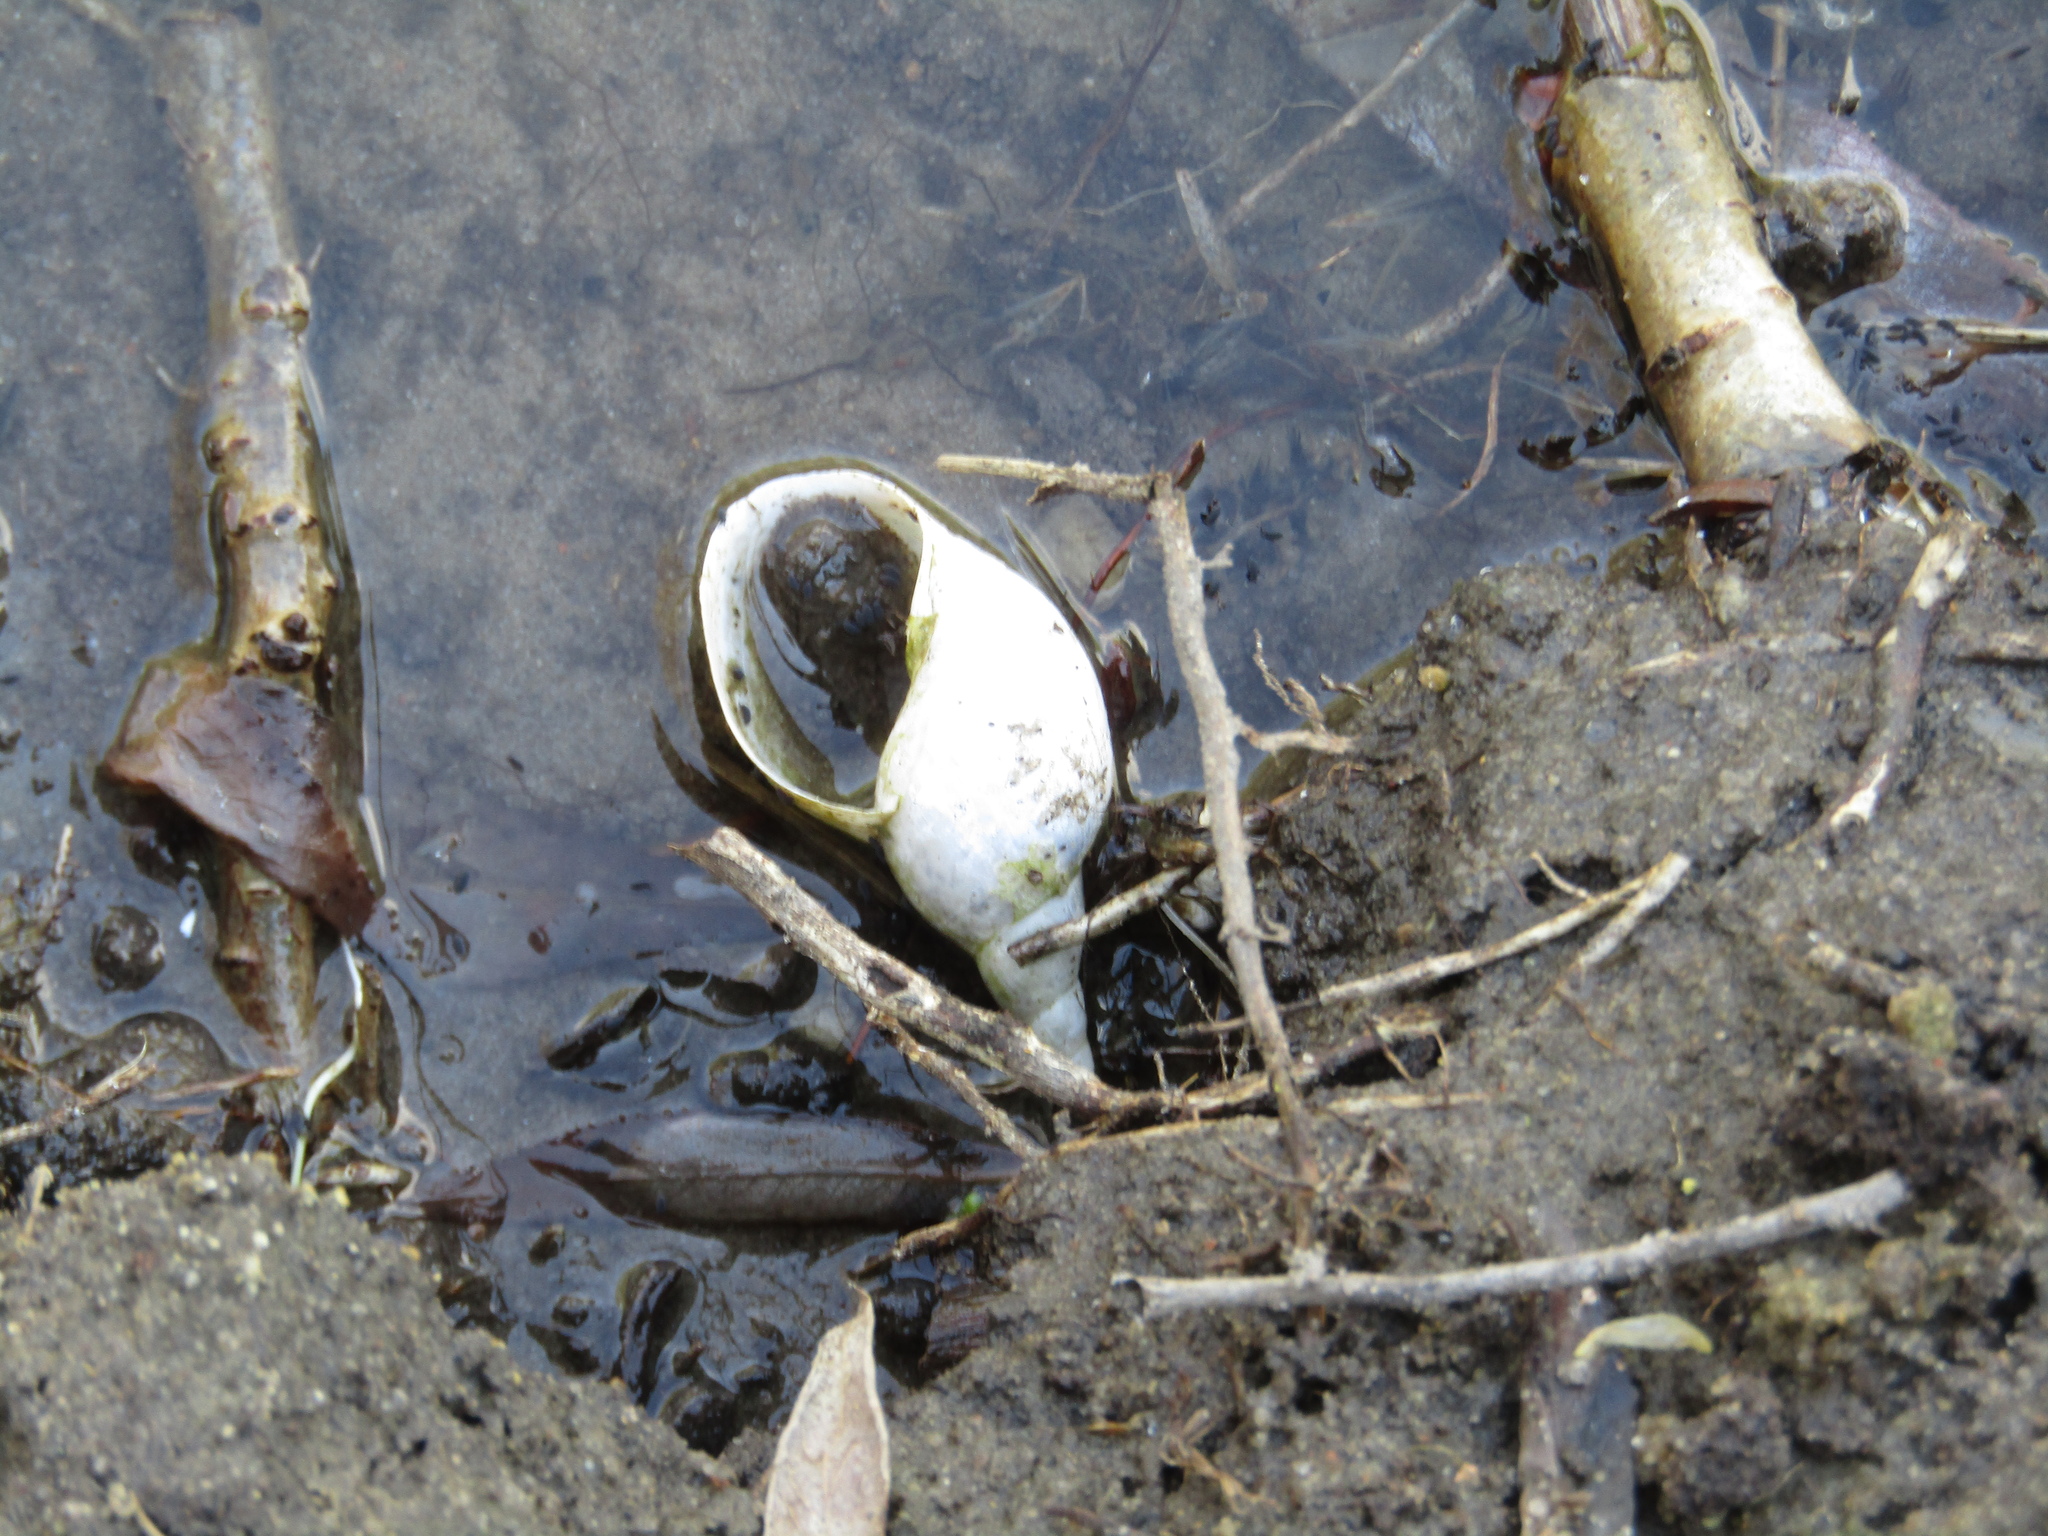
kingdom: Animalia
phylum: Mollusca
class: Gastropoda
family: Lymnaeidae
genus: Lymnaea
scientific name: Lymnaea stagnalis
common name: Great pond snail
